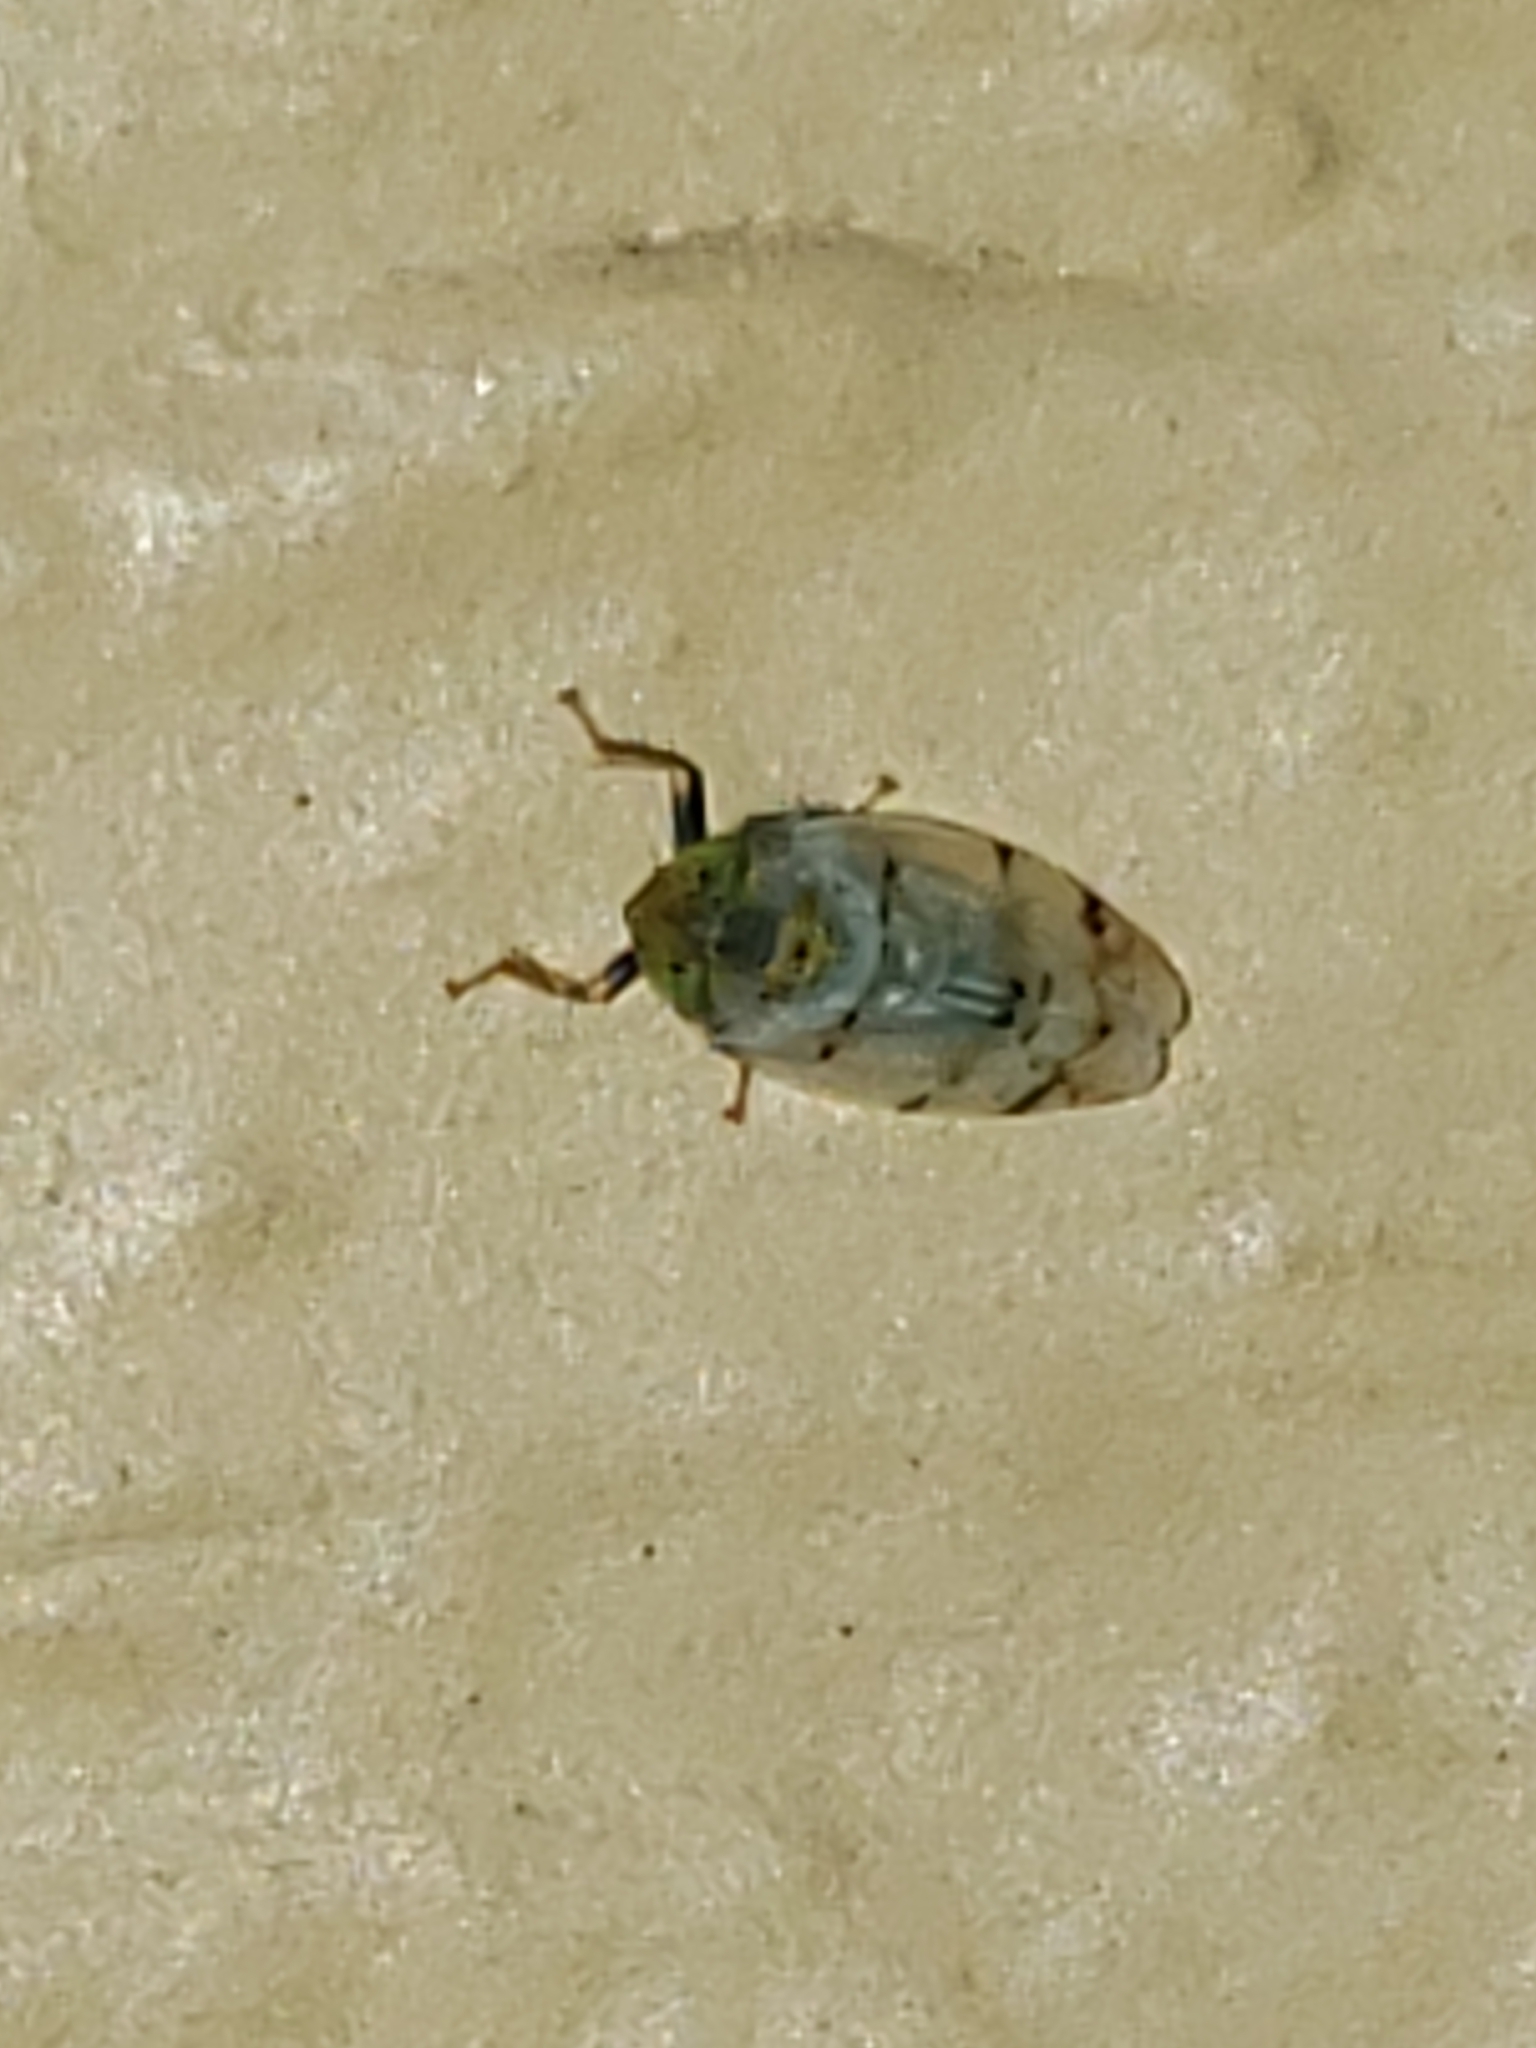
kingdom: Animalia
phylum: Arthropoda
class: Insecta
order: Hemiptera
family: Cicadellidae
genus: Japananus
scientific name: Japananus hyalinus
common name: The japanese maple leafhopper
